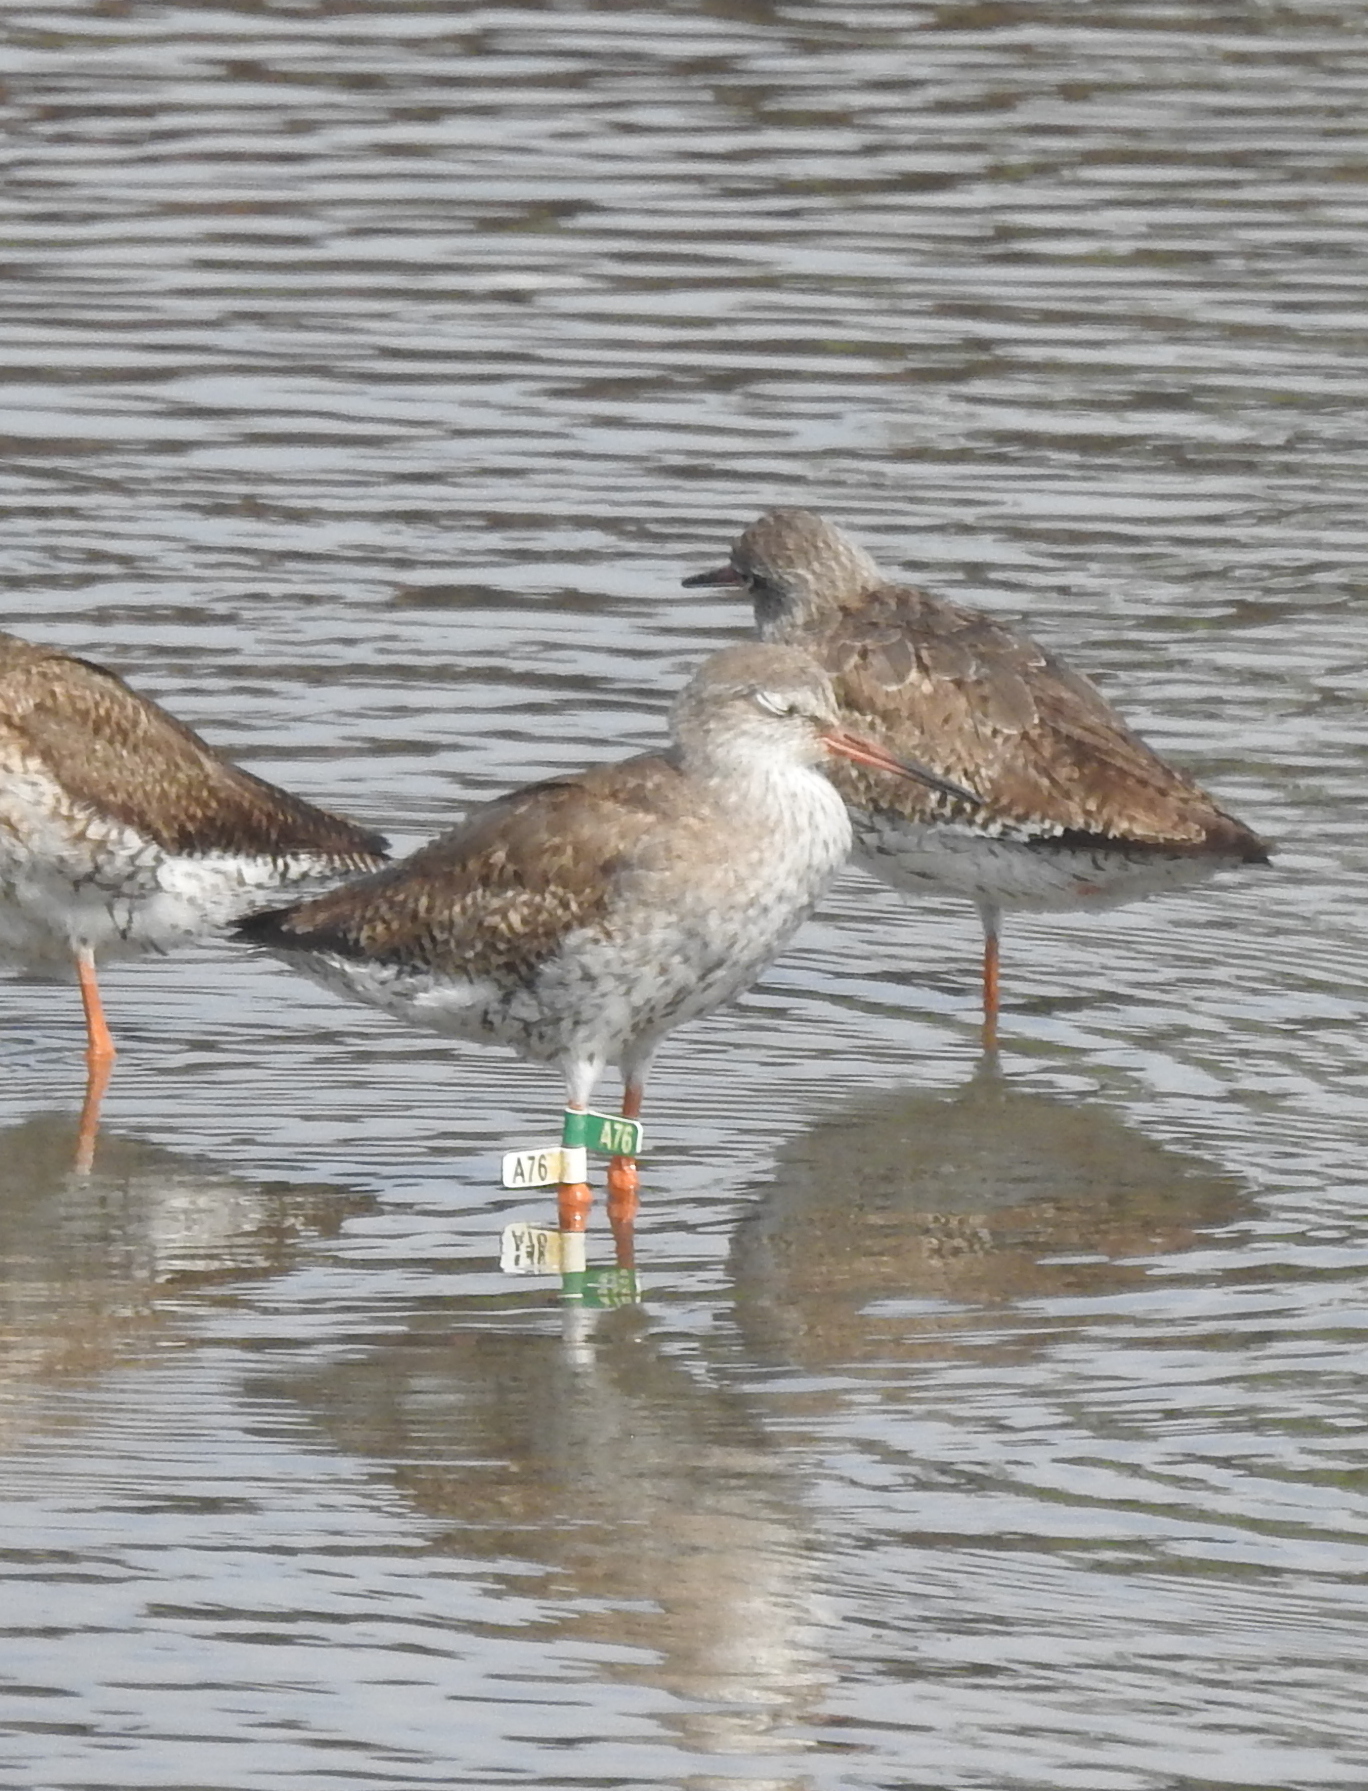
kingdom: Animalia
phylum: Chordata
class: Aves
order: Charadriiformes
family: Scolopacidae
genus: Tringa
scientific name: Tringa totanus
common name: Common redshank
